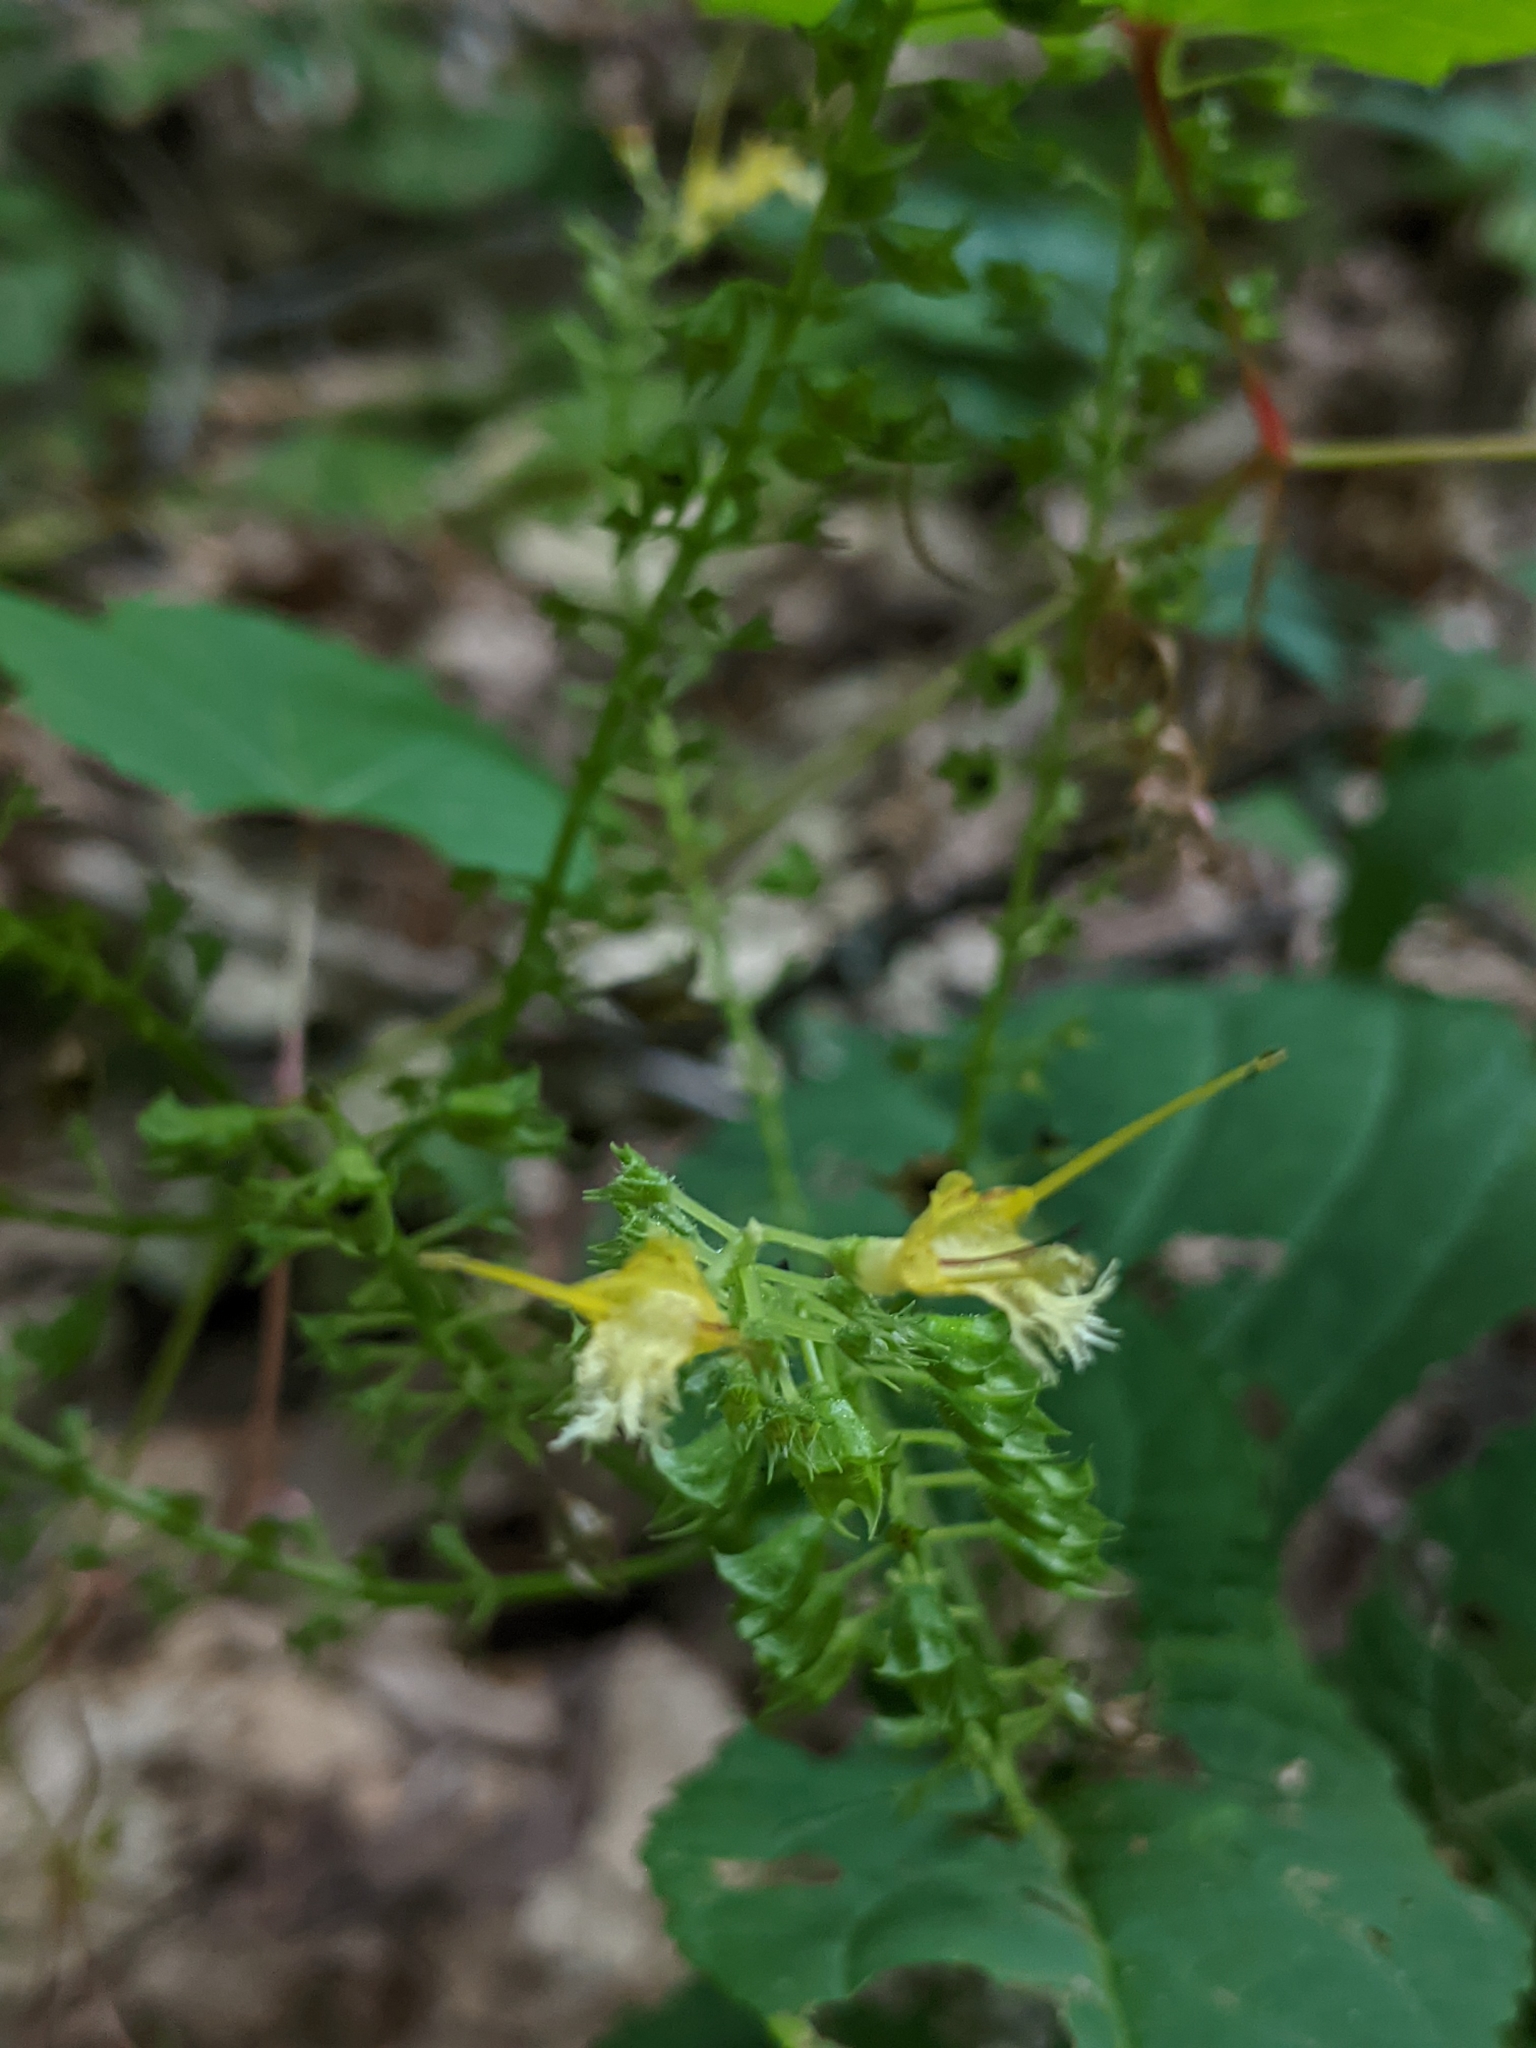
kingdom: Plantae
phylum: Tracheophyta
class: Magnoliopsida
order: Lamiales
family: Lamiaceae
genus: Collinsonia
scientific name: Collinsonia canadensis
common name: Northern horsebalm
